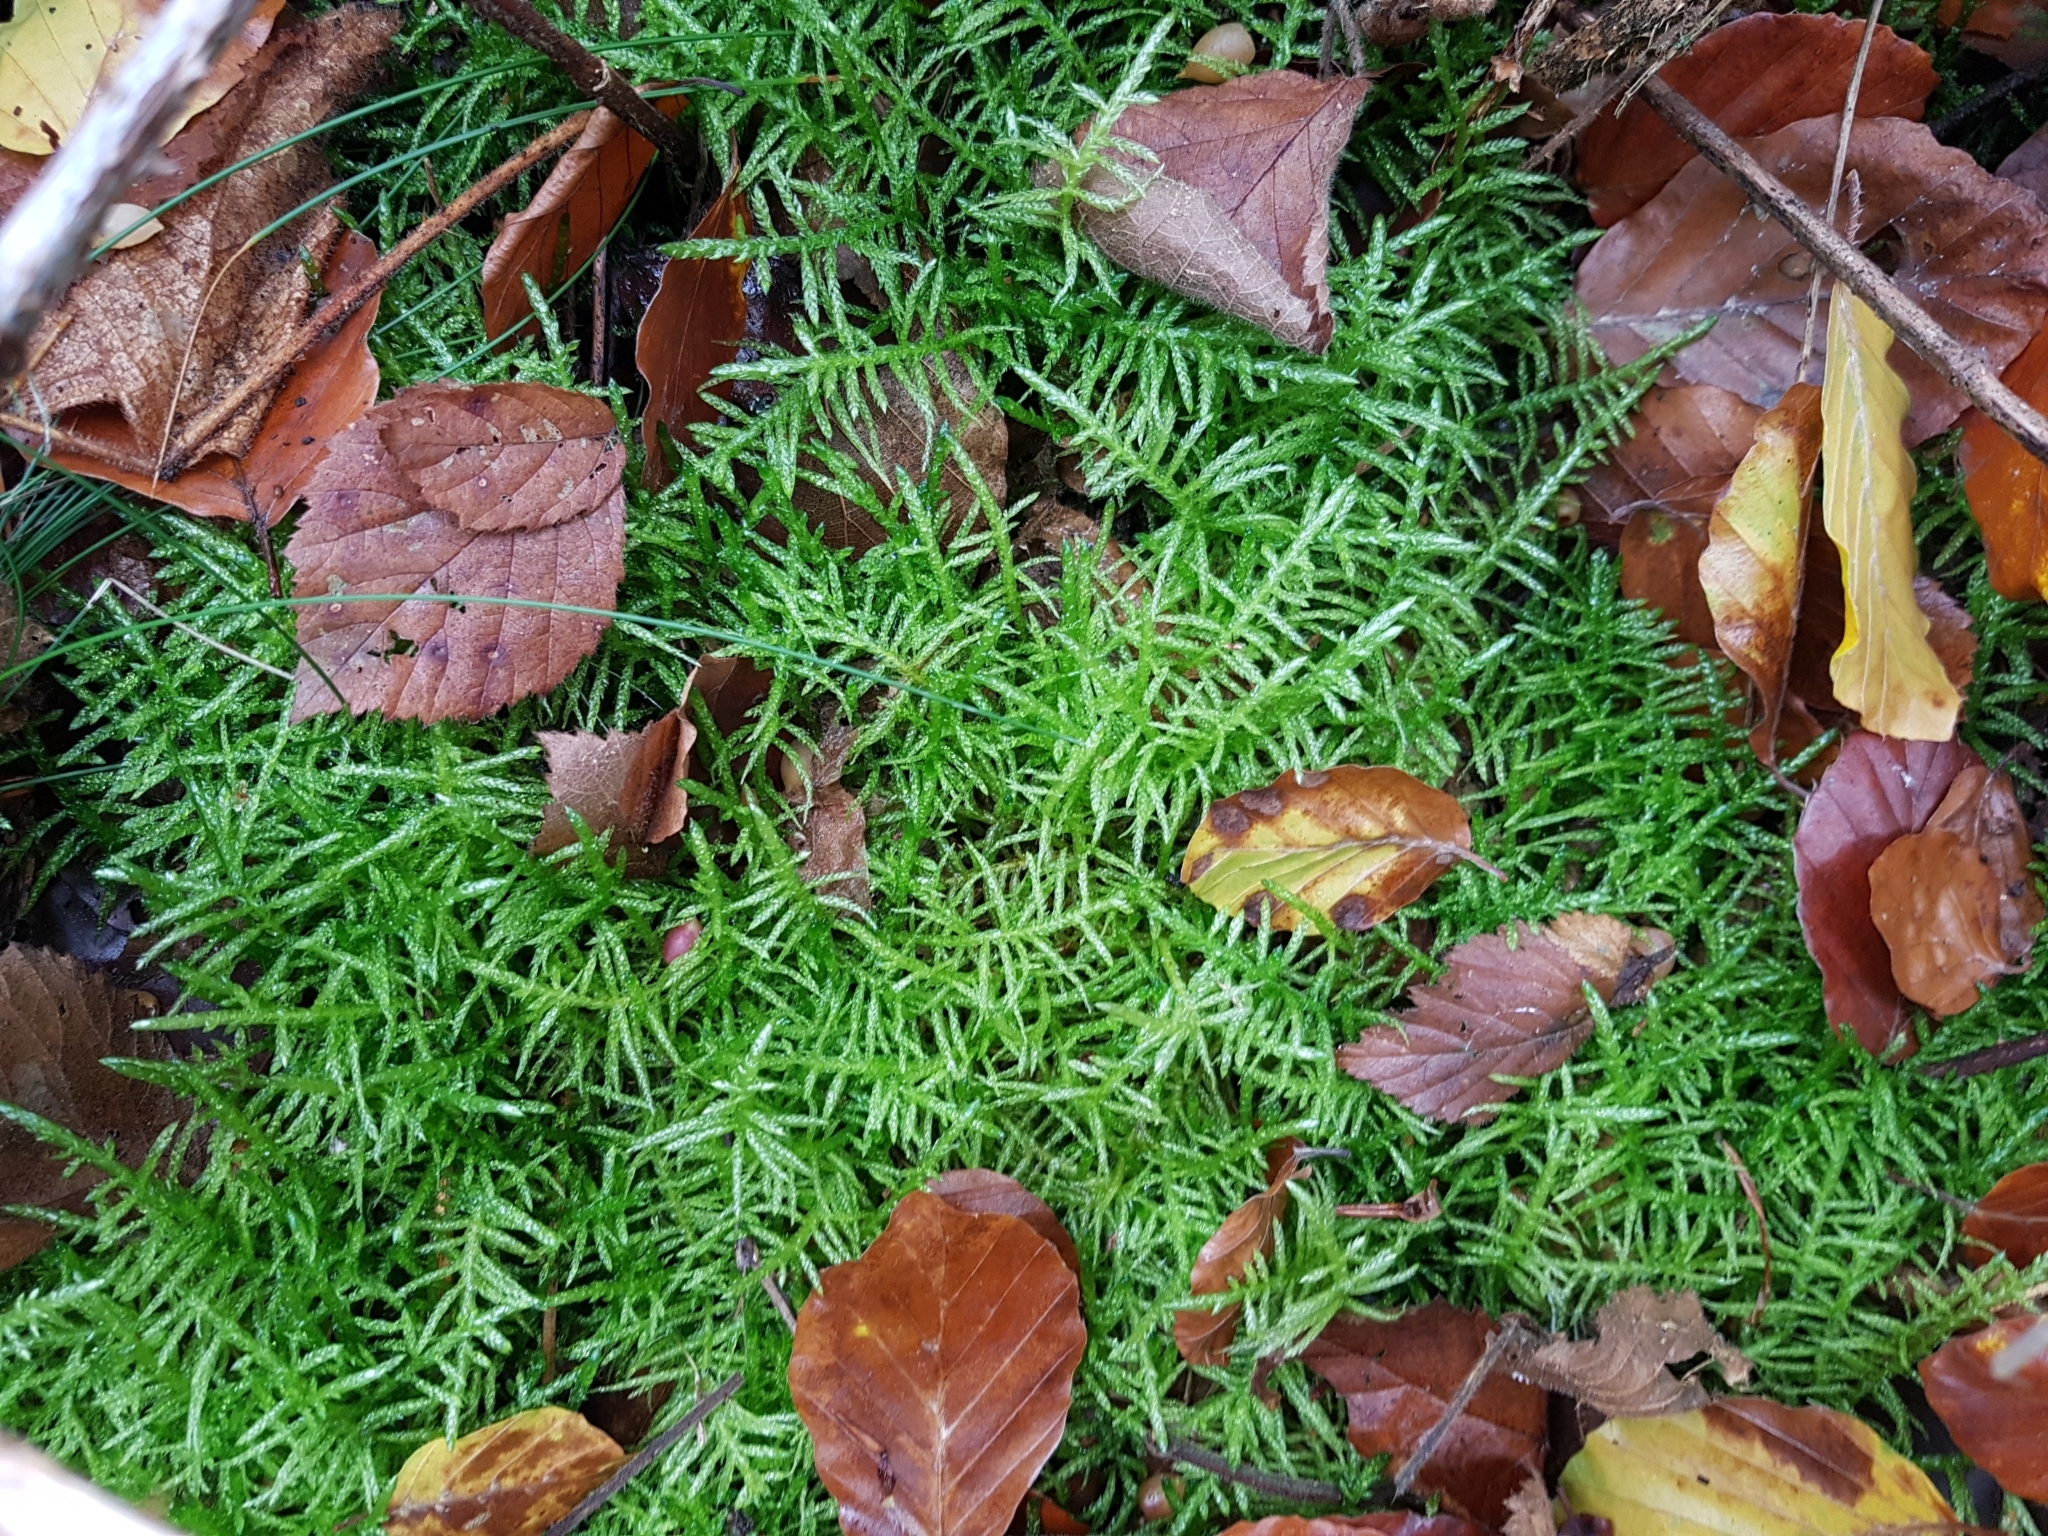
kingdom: Plantae
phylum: Bryophyta
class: Bryopsida
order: Hypnales
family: Brachytheciaceae
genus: Pseudoscleropodium
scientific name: Pseudoscleropodium purum
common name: Neat feather-moss
